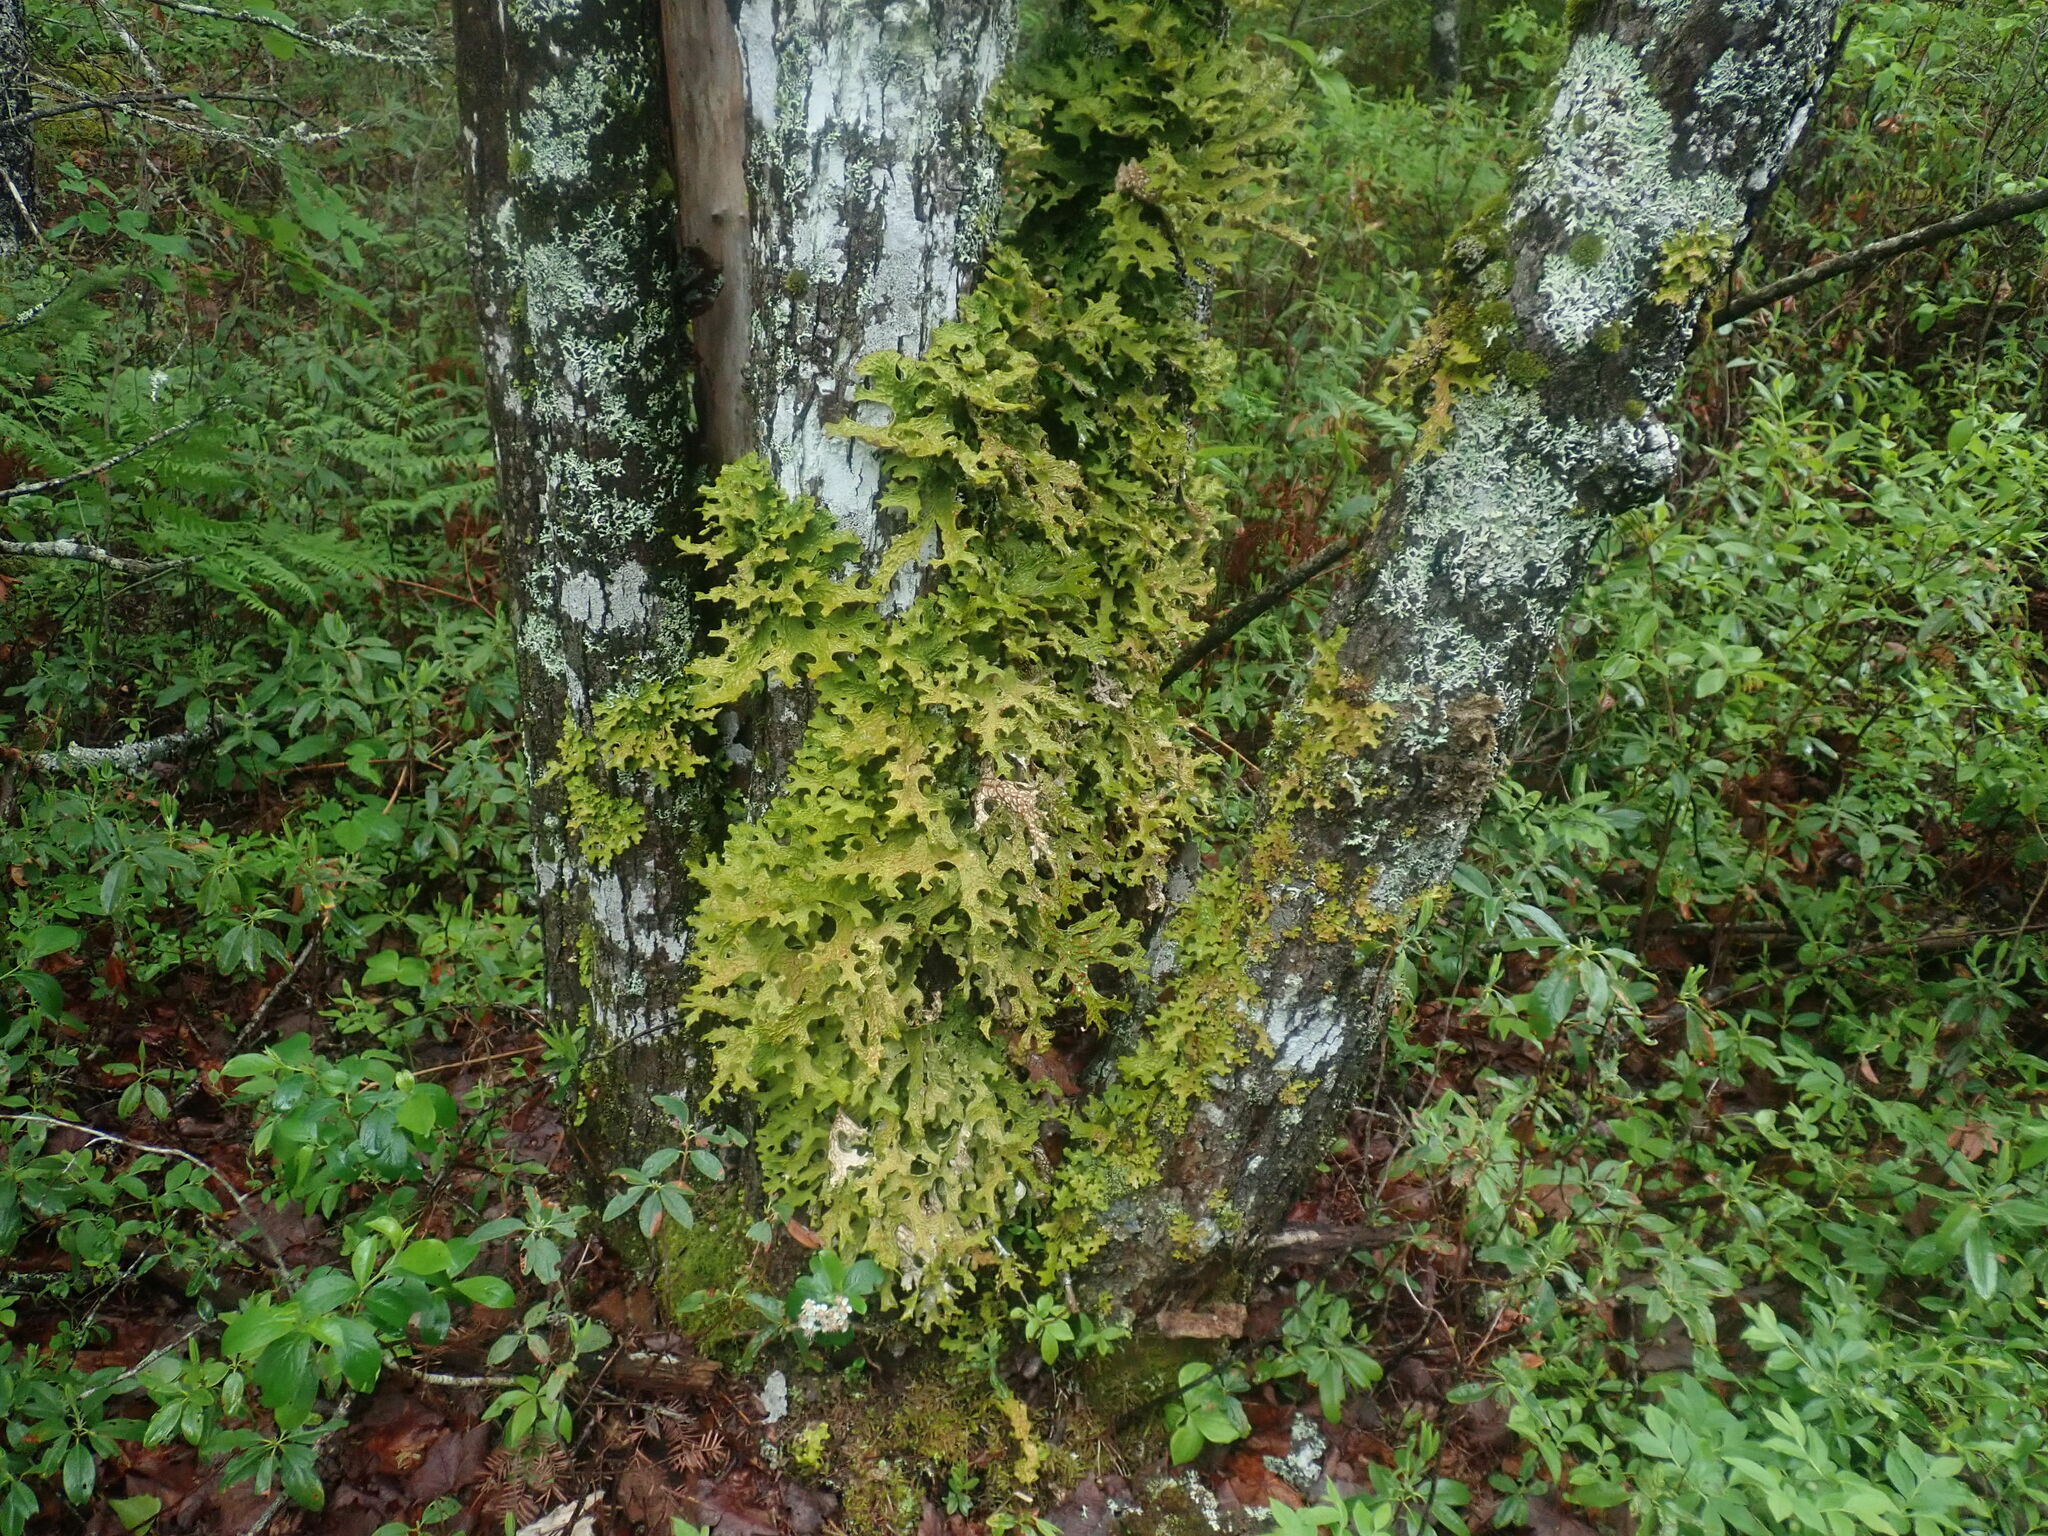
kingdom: Fungi
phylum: Ascomycota
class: Lecanoromycetes
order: Peltigerales
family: Lobariaceae
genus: Lobaria
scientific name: Lobaria pulmonaria
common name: Lungwort
